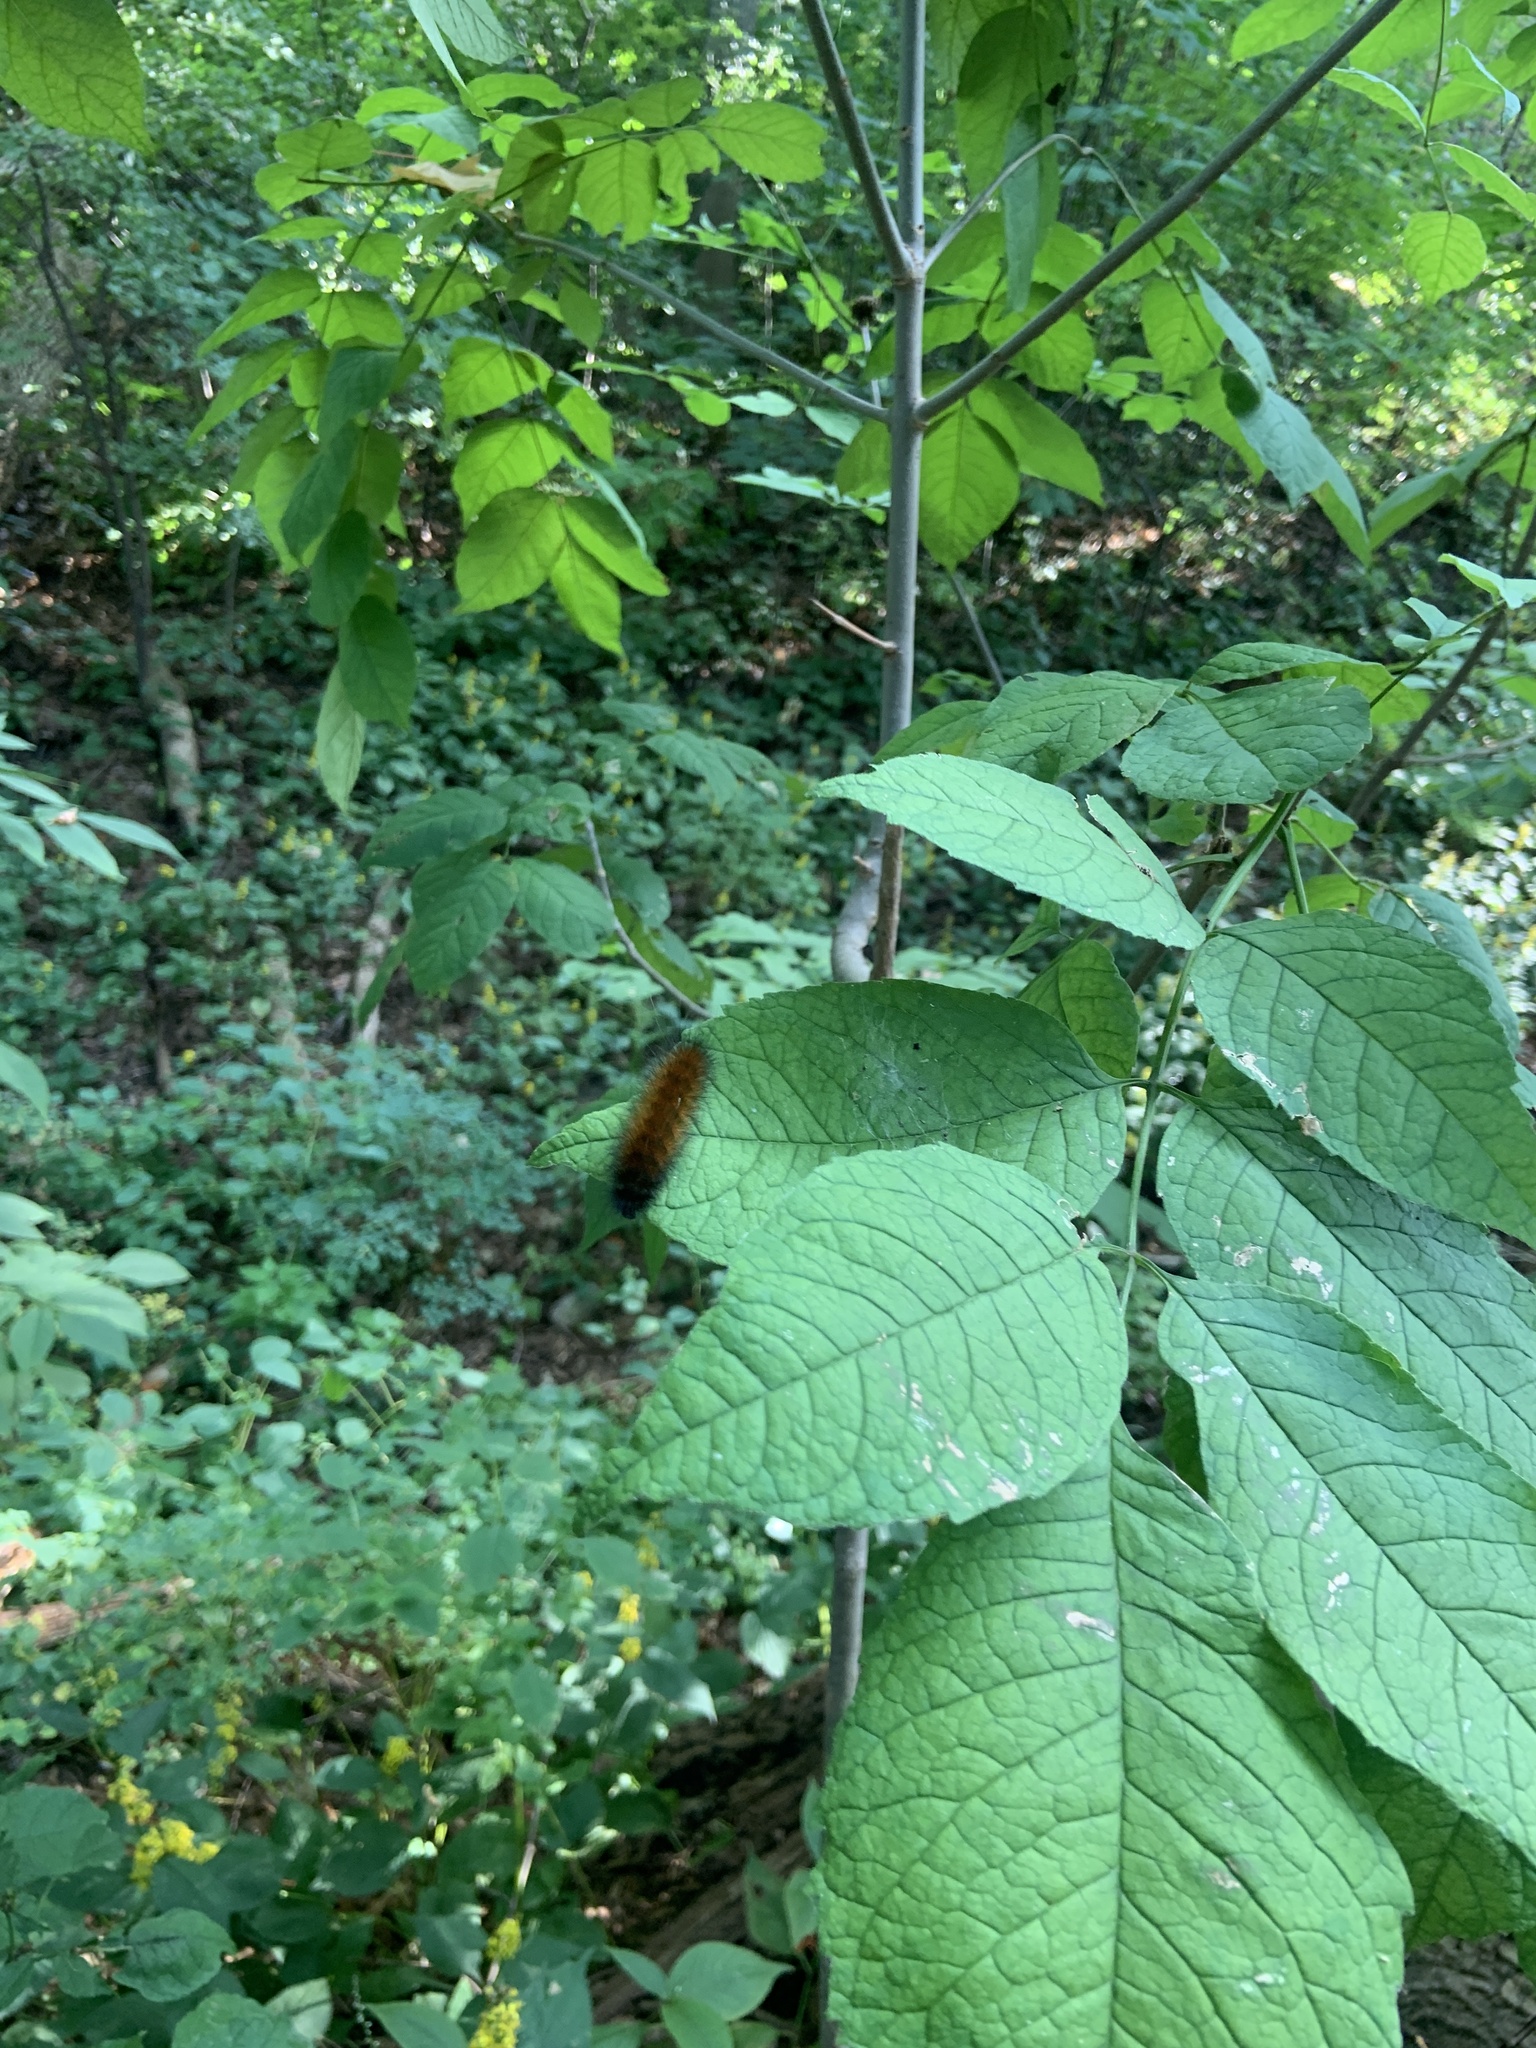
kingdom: Animalia
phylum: Arthropoda
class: Insecta
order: Lepidoptera
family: Erebidae
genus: Spilosoma
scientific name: Spilosoma virginica
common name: Virginia tiger moth
